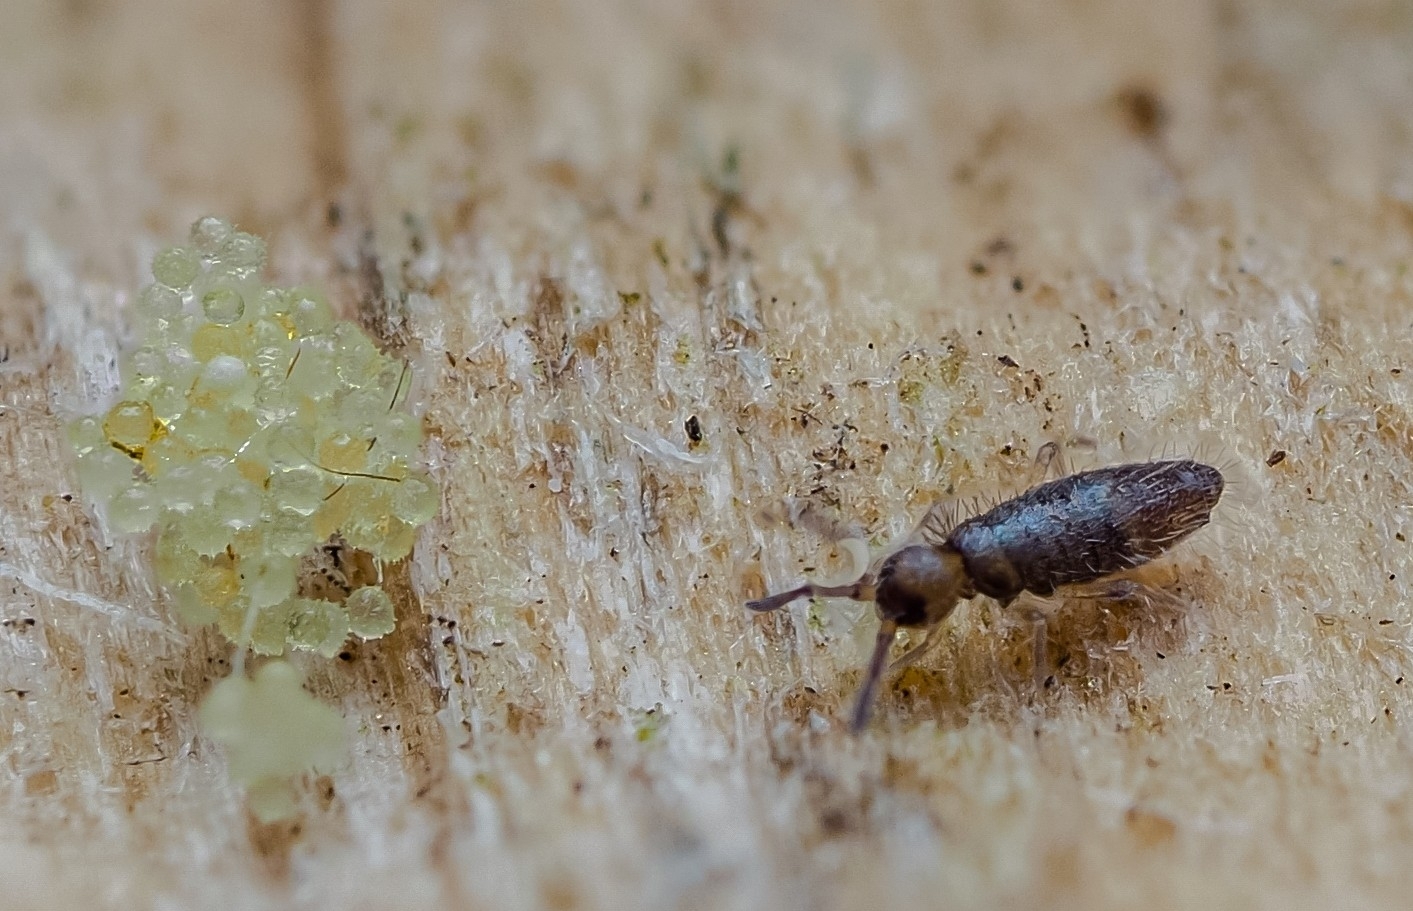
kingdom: Animalia
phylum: Arthropoda
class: Collembola
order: Entomobryomorpha
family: Entomobryidae
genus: Willowsia
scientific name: Willowsia buski
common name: Damp grain springtail
